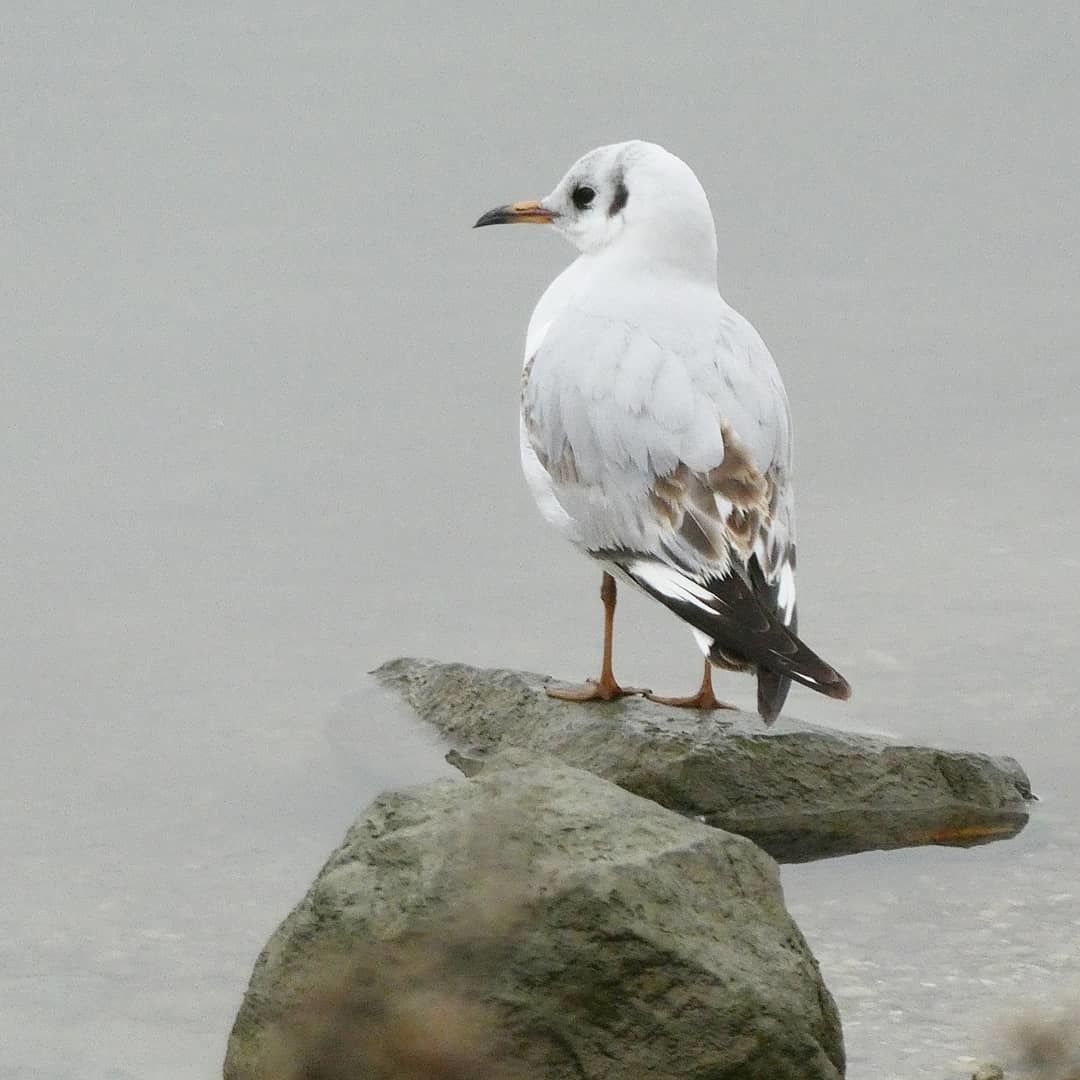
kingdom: Animalia
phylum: Chordata
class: Aves
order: Charadriiformes
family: Laridae
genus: Chroicocephalus
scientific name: Chroicocephalus ridibundus
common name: Black-headed gull
